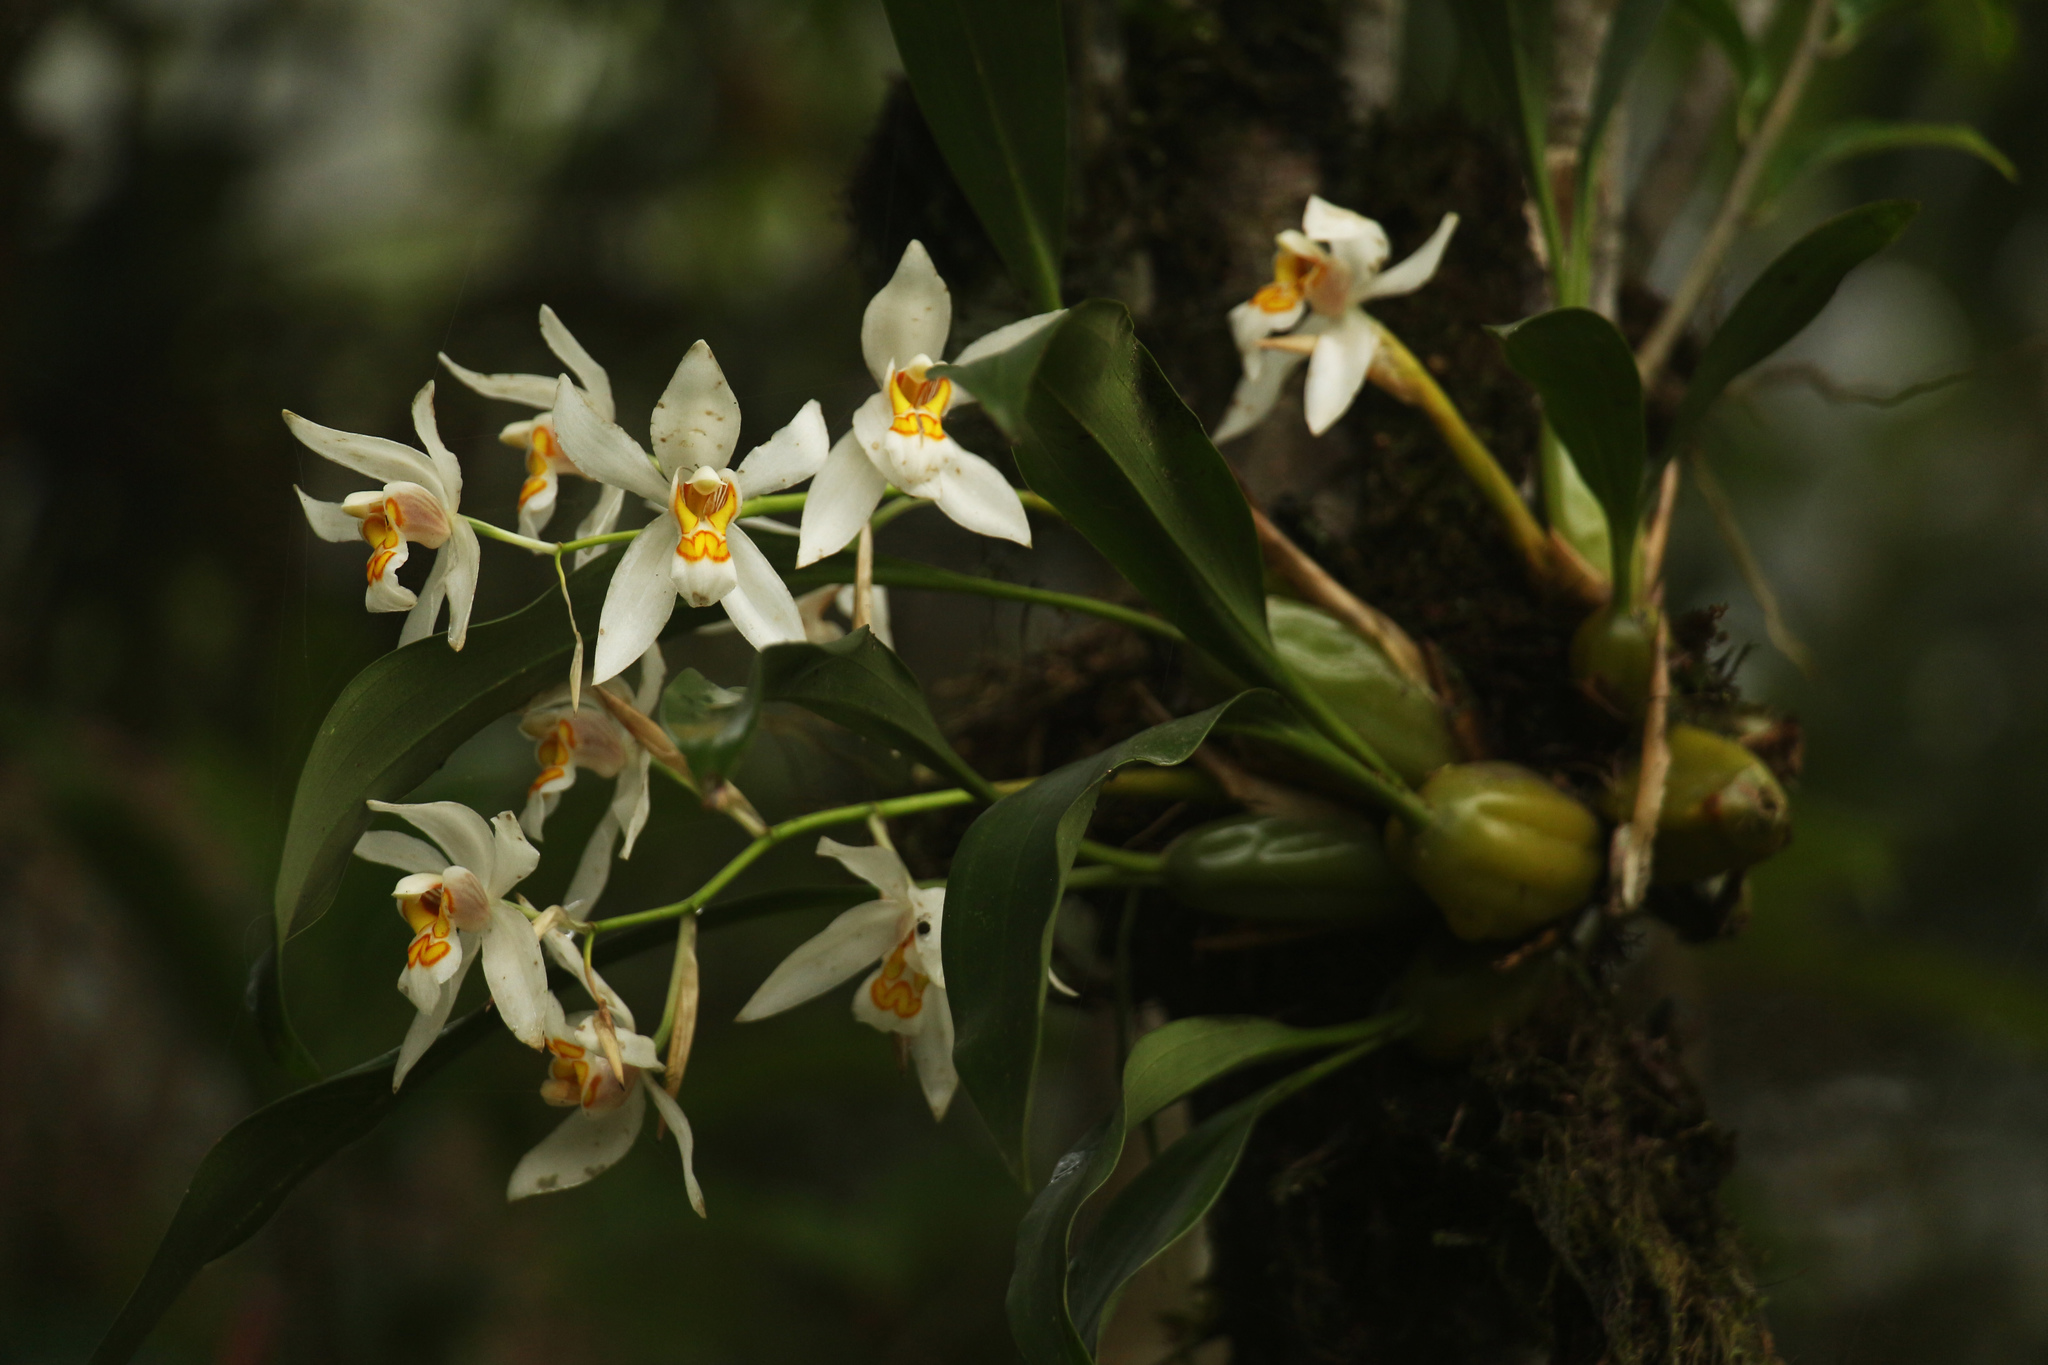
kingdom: Plantae
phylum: Tracheophyta
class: Liliopsida
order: Asparagales
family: Orchidaceae
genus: Coelogyne
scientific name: Coelogyne nitida
